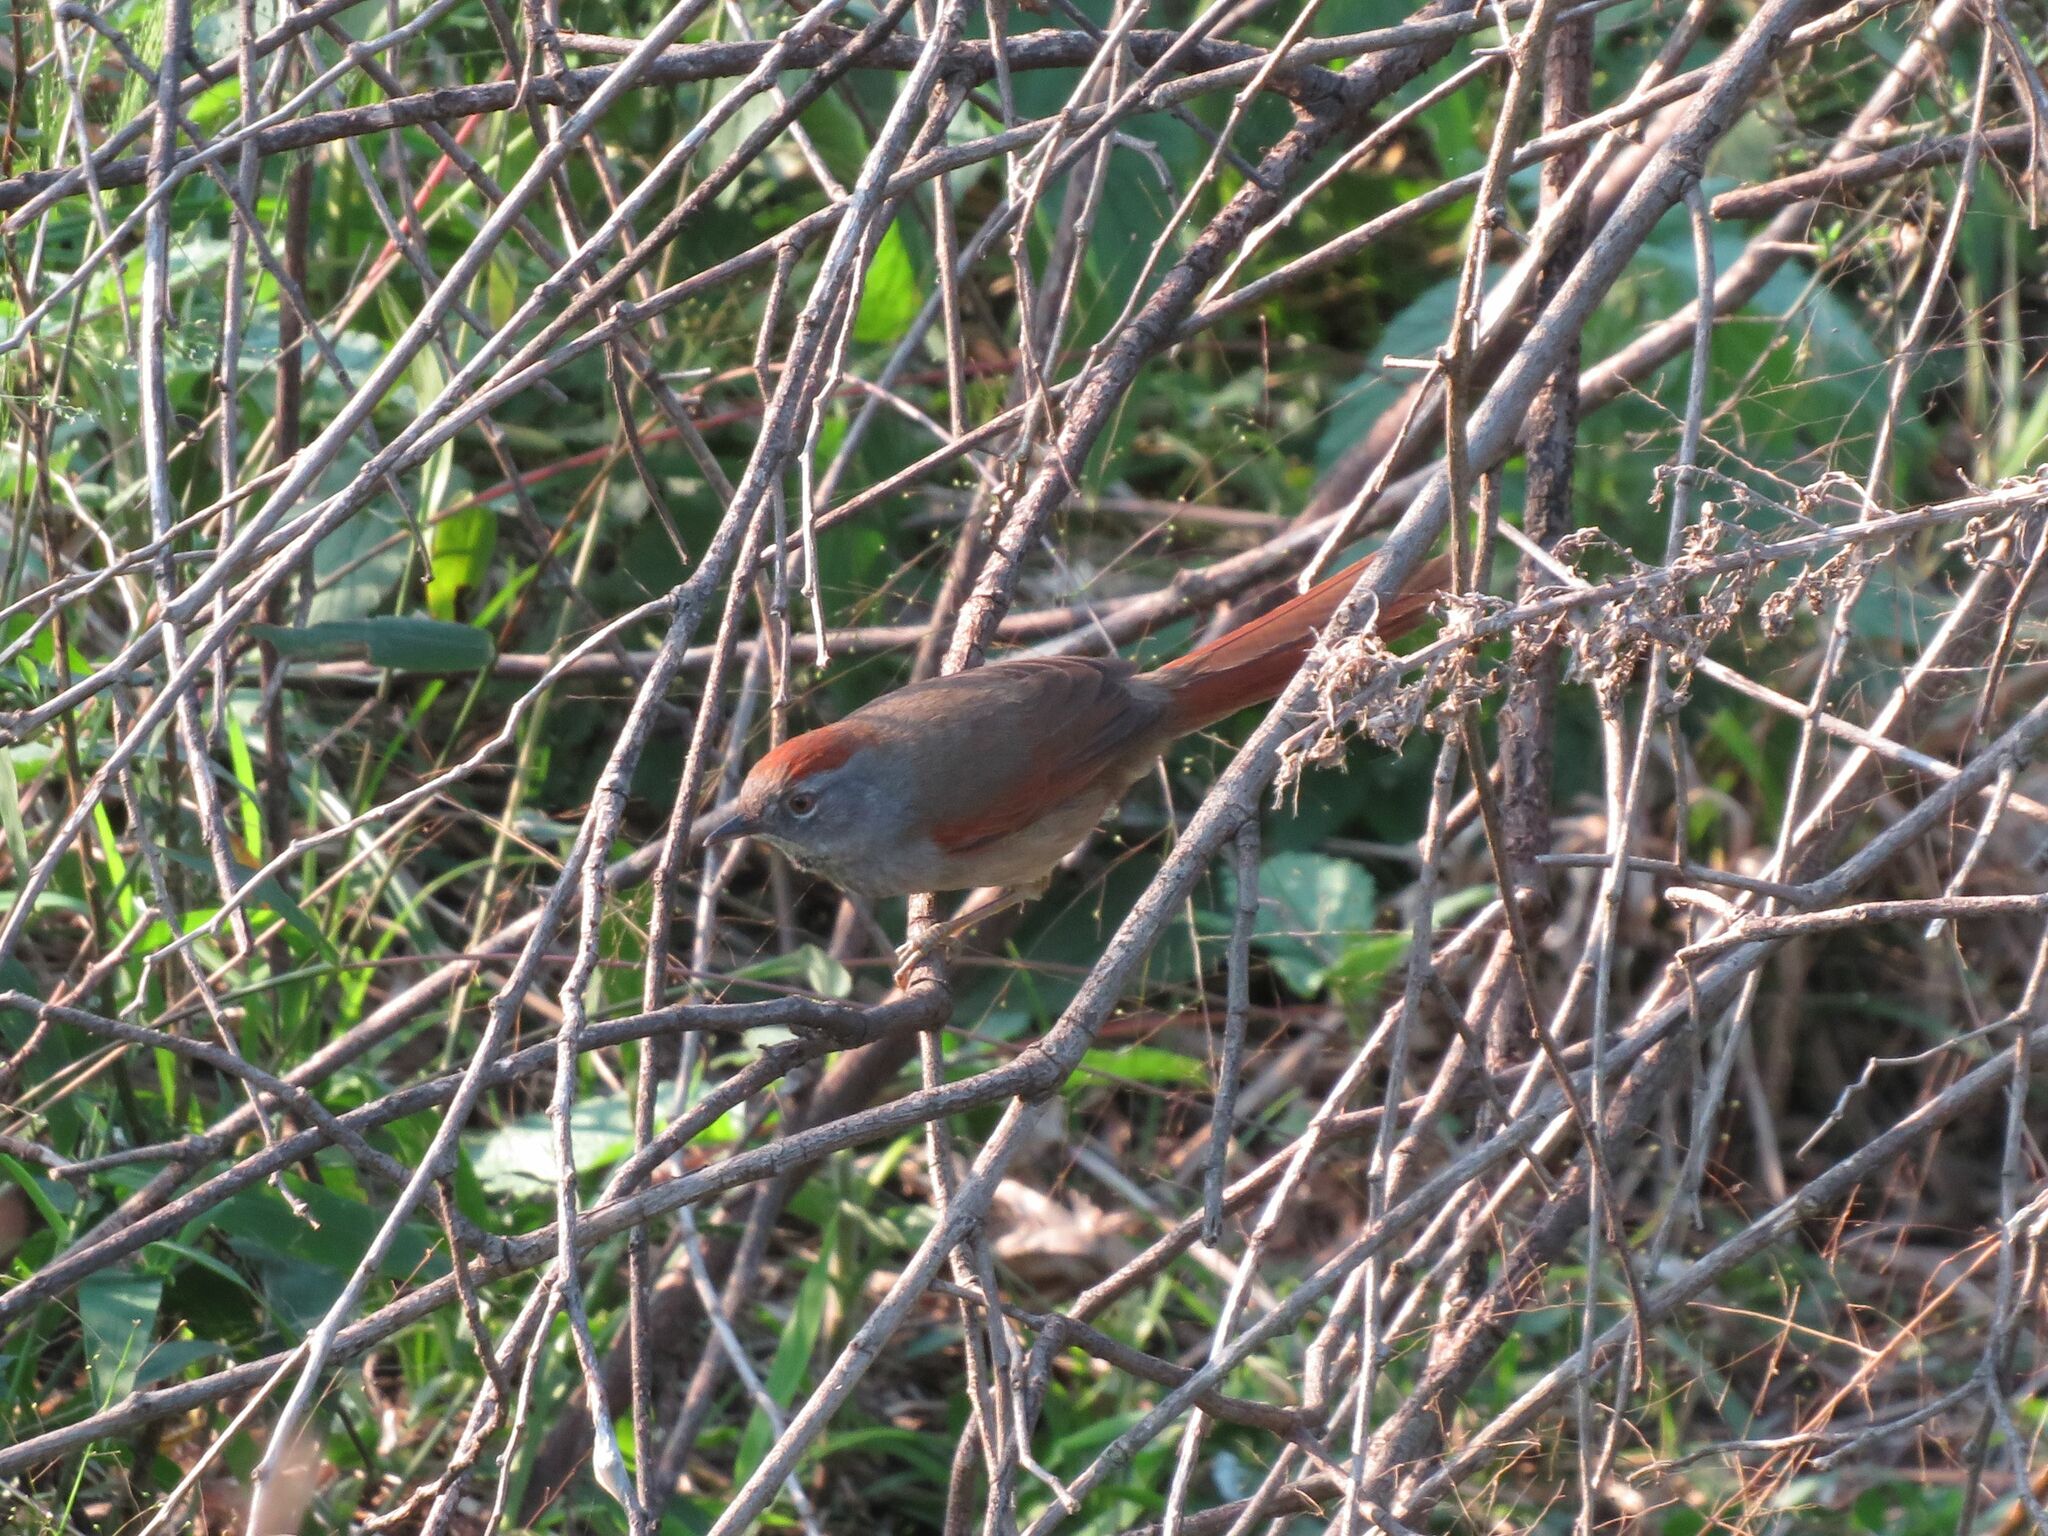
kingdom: Animalia
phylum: Chordata
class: Aves
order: Passeriformes
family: Furnariidae
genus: Synallaxis
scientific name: Synallaxis frontalis
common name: Sooty-fronted spinetail
